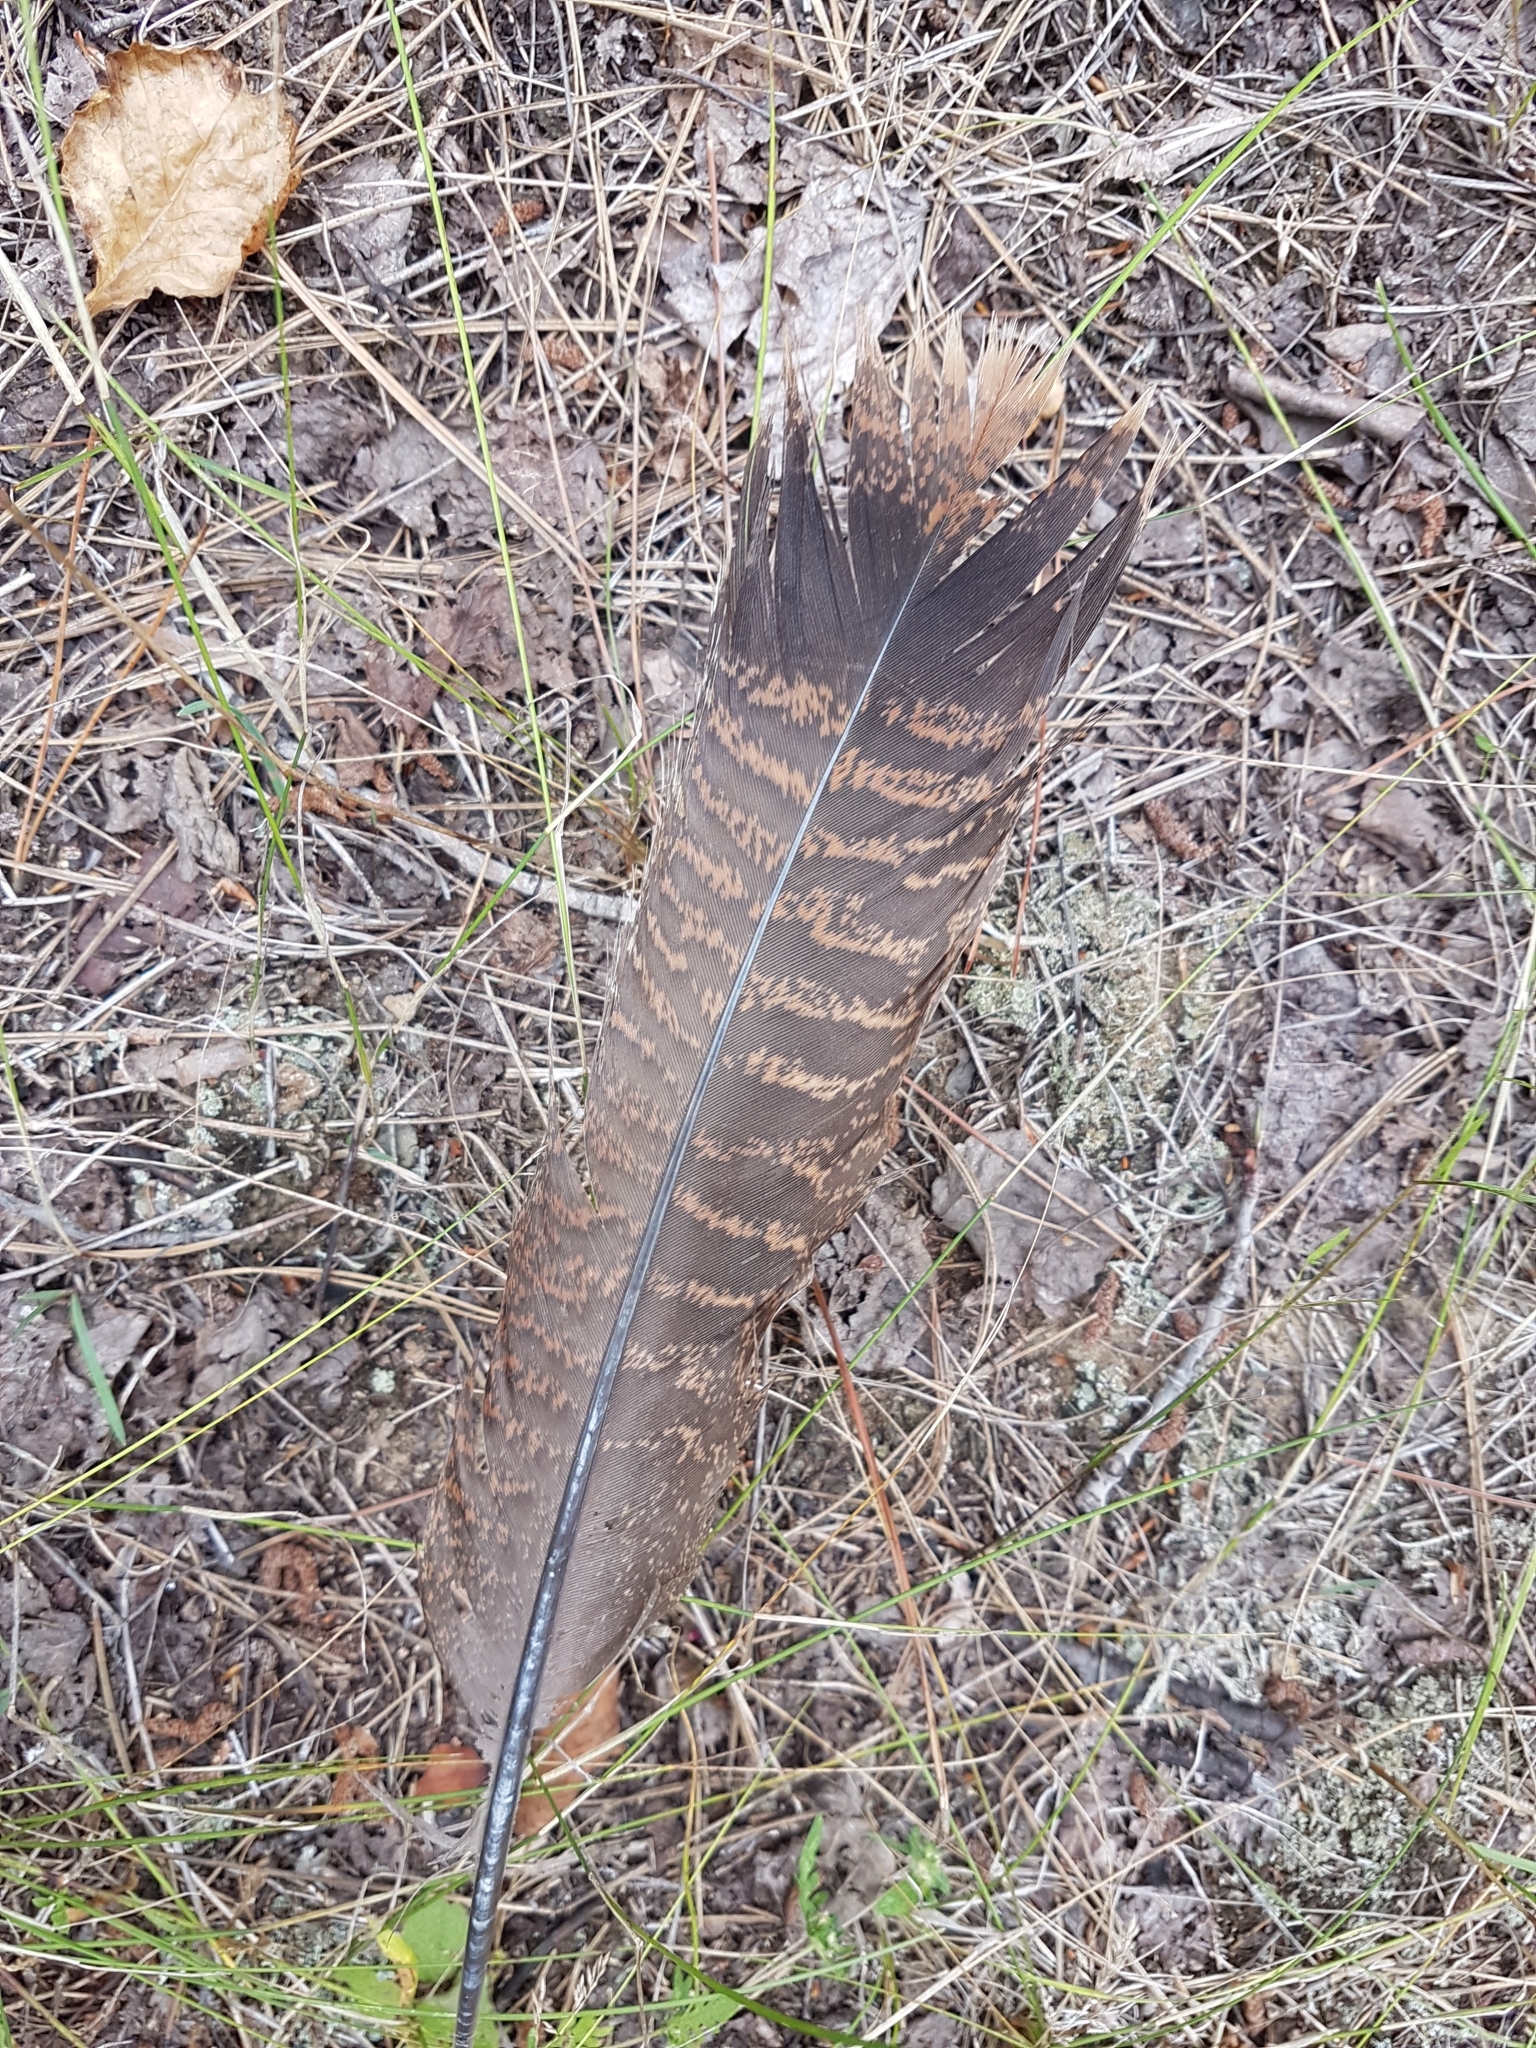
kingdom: Animalia
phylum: Chordata
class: Aves
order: Galliformes
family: Phasianidae
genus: Meleagris
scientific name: Meleagris gallopavo
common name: Wild turkey
